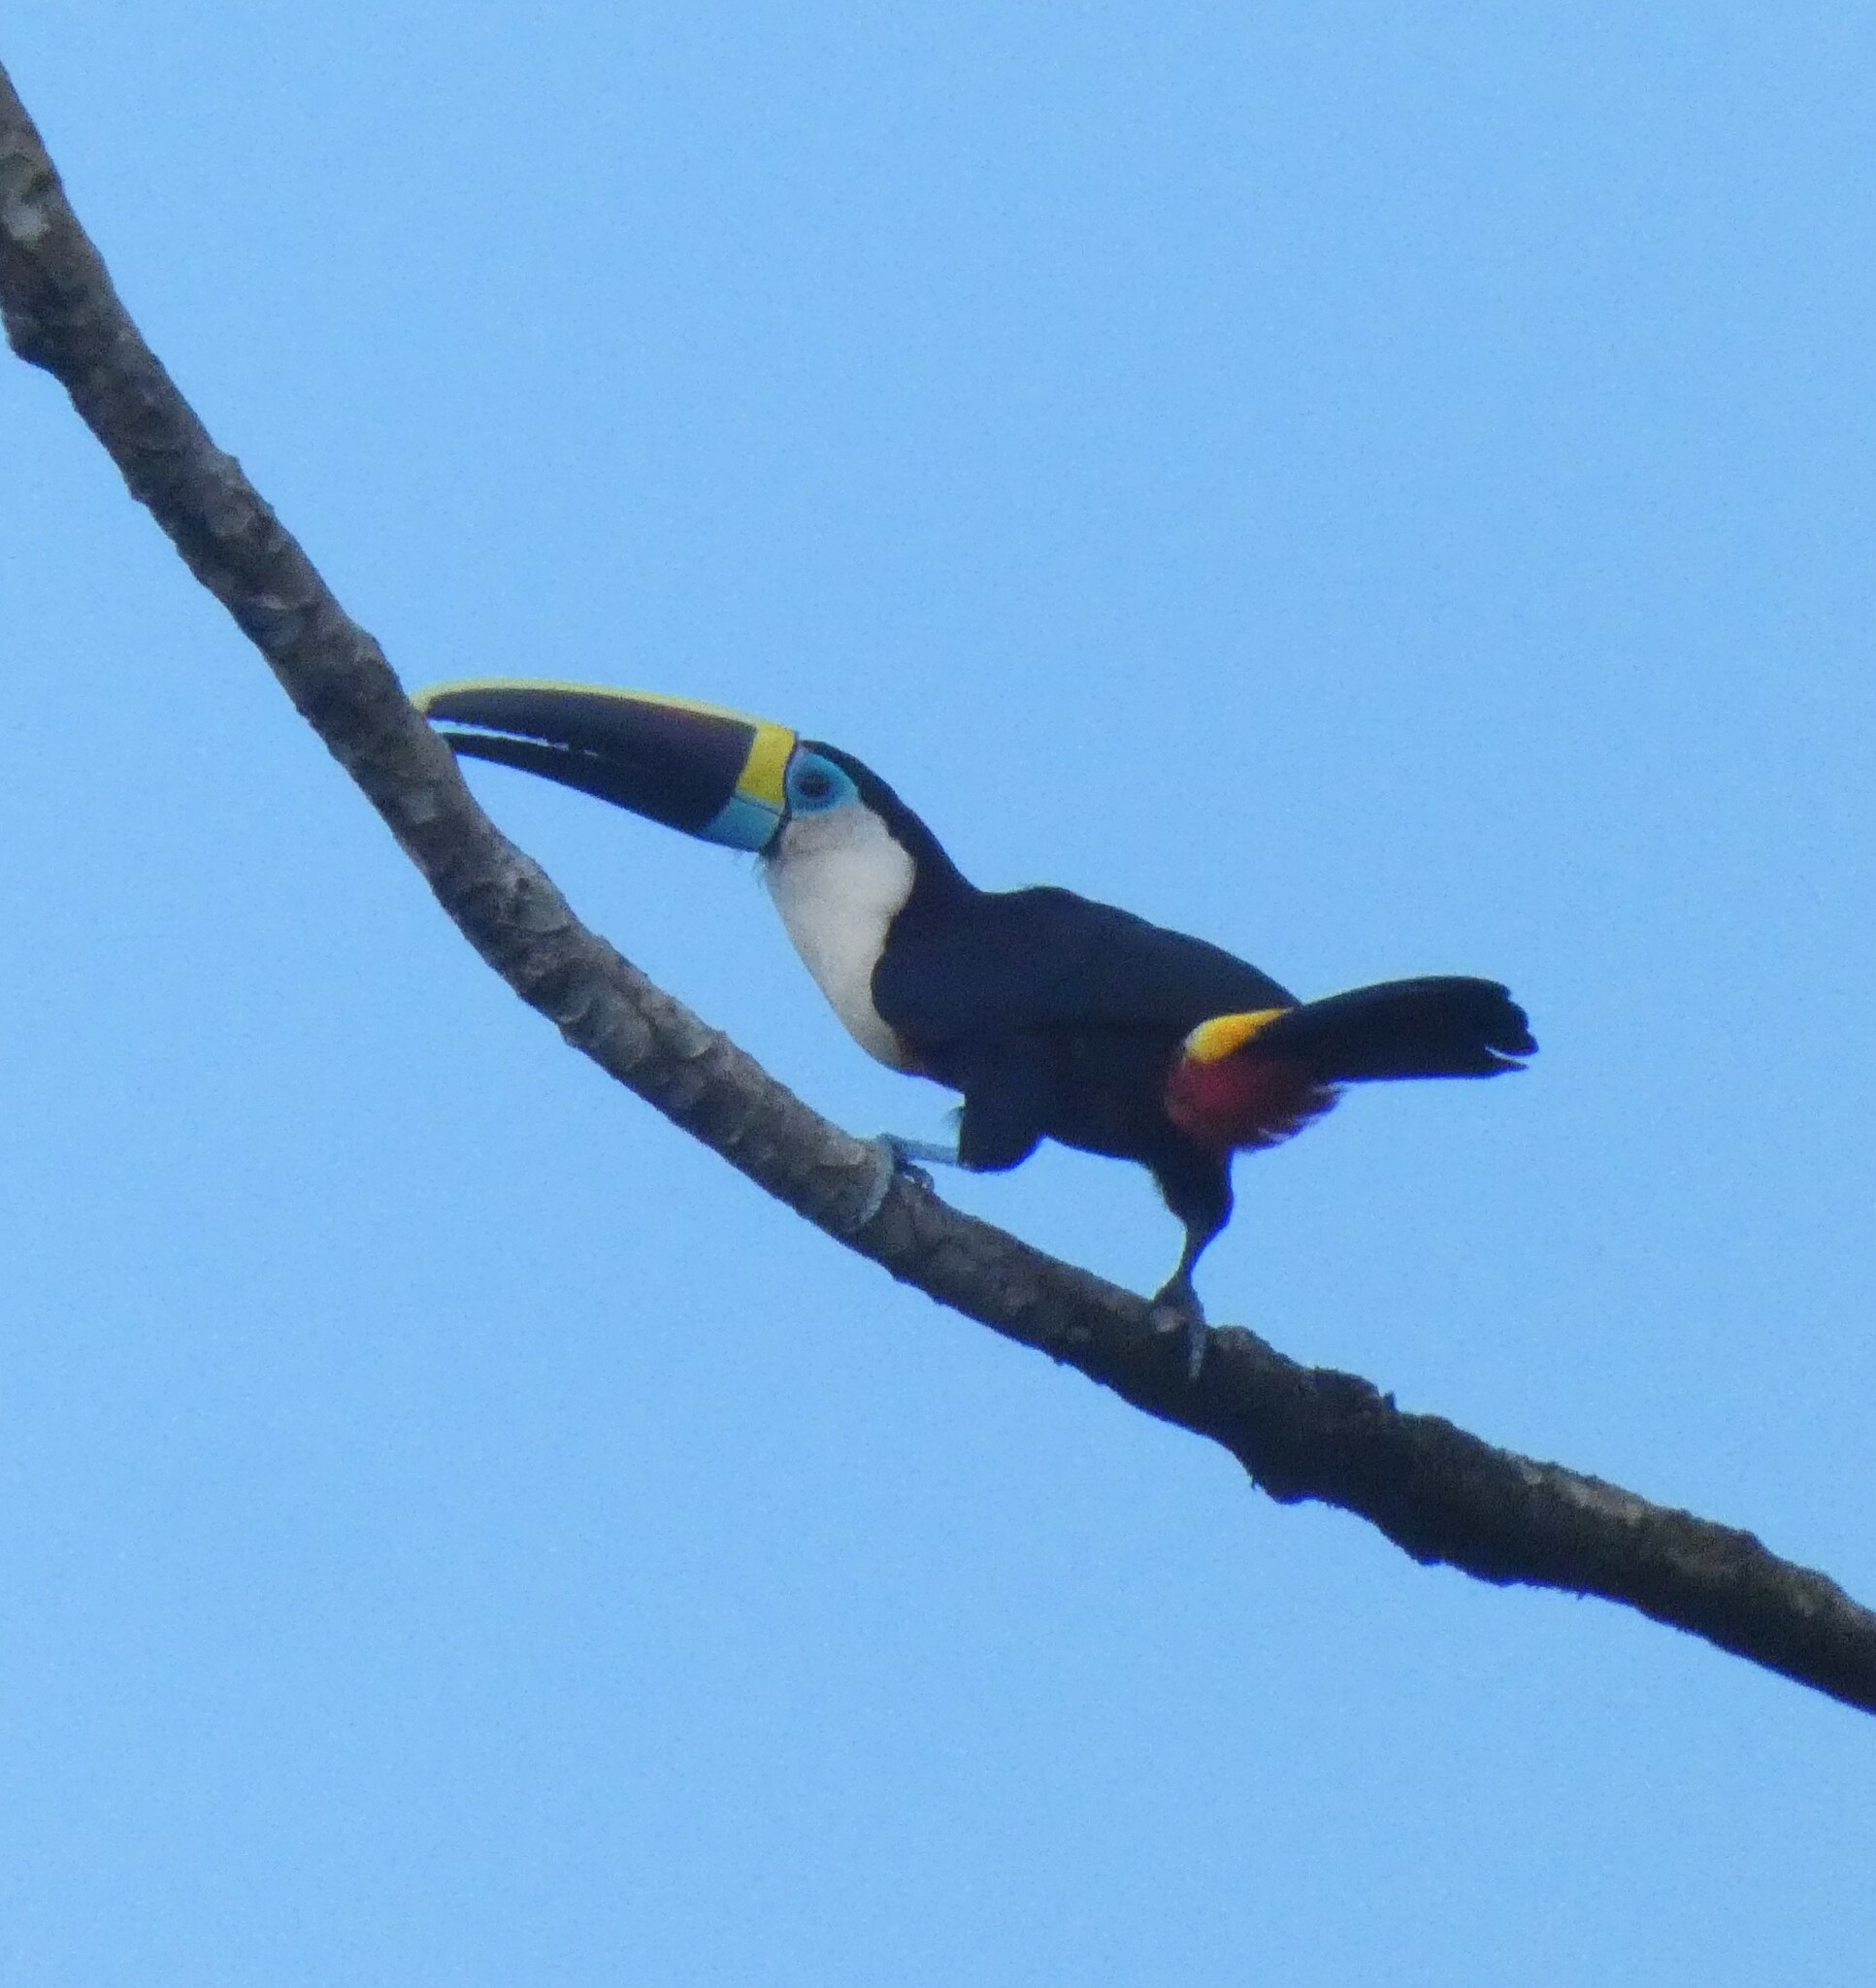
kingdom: Animalia
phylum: Chordata
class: Aves
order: Piciformes
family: Ramphastidae
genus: Ramphastos
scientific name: Ramphastos tucanus
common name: White-throated toucan
